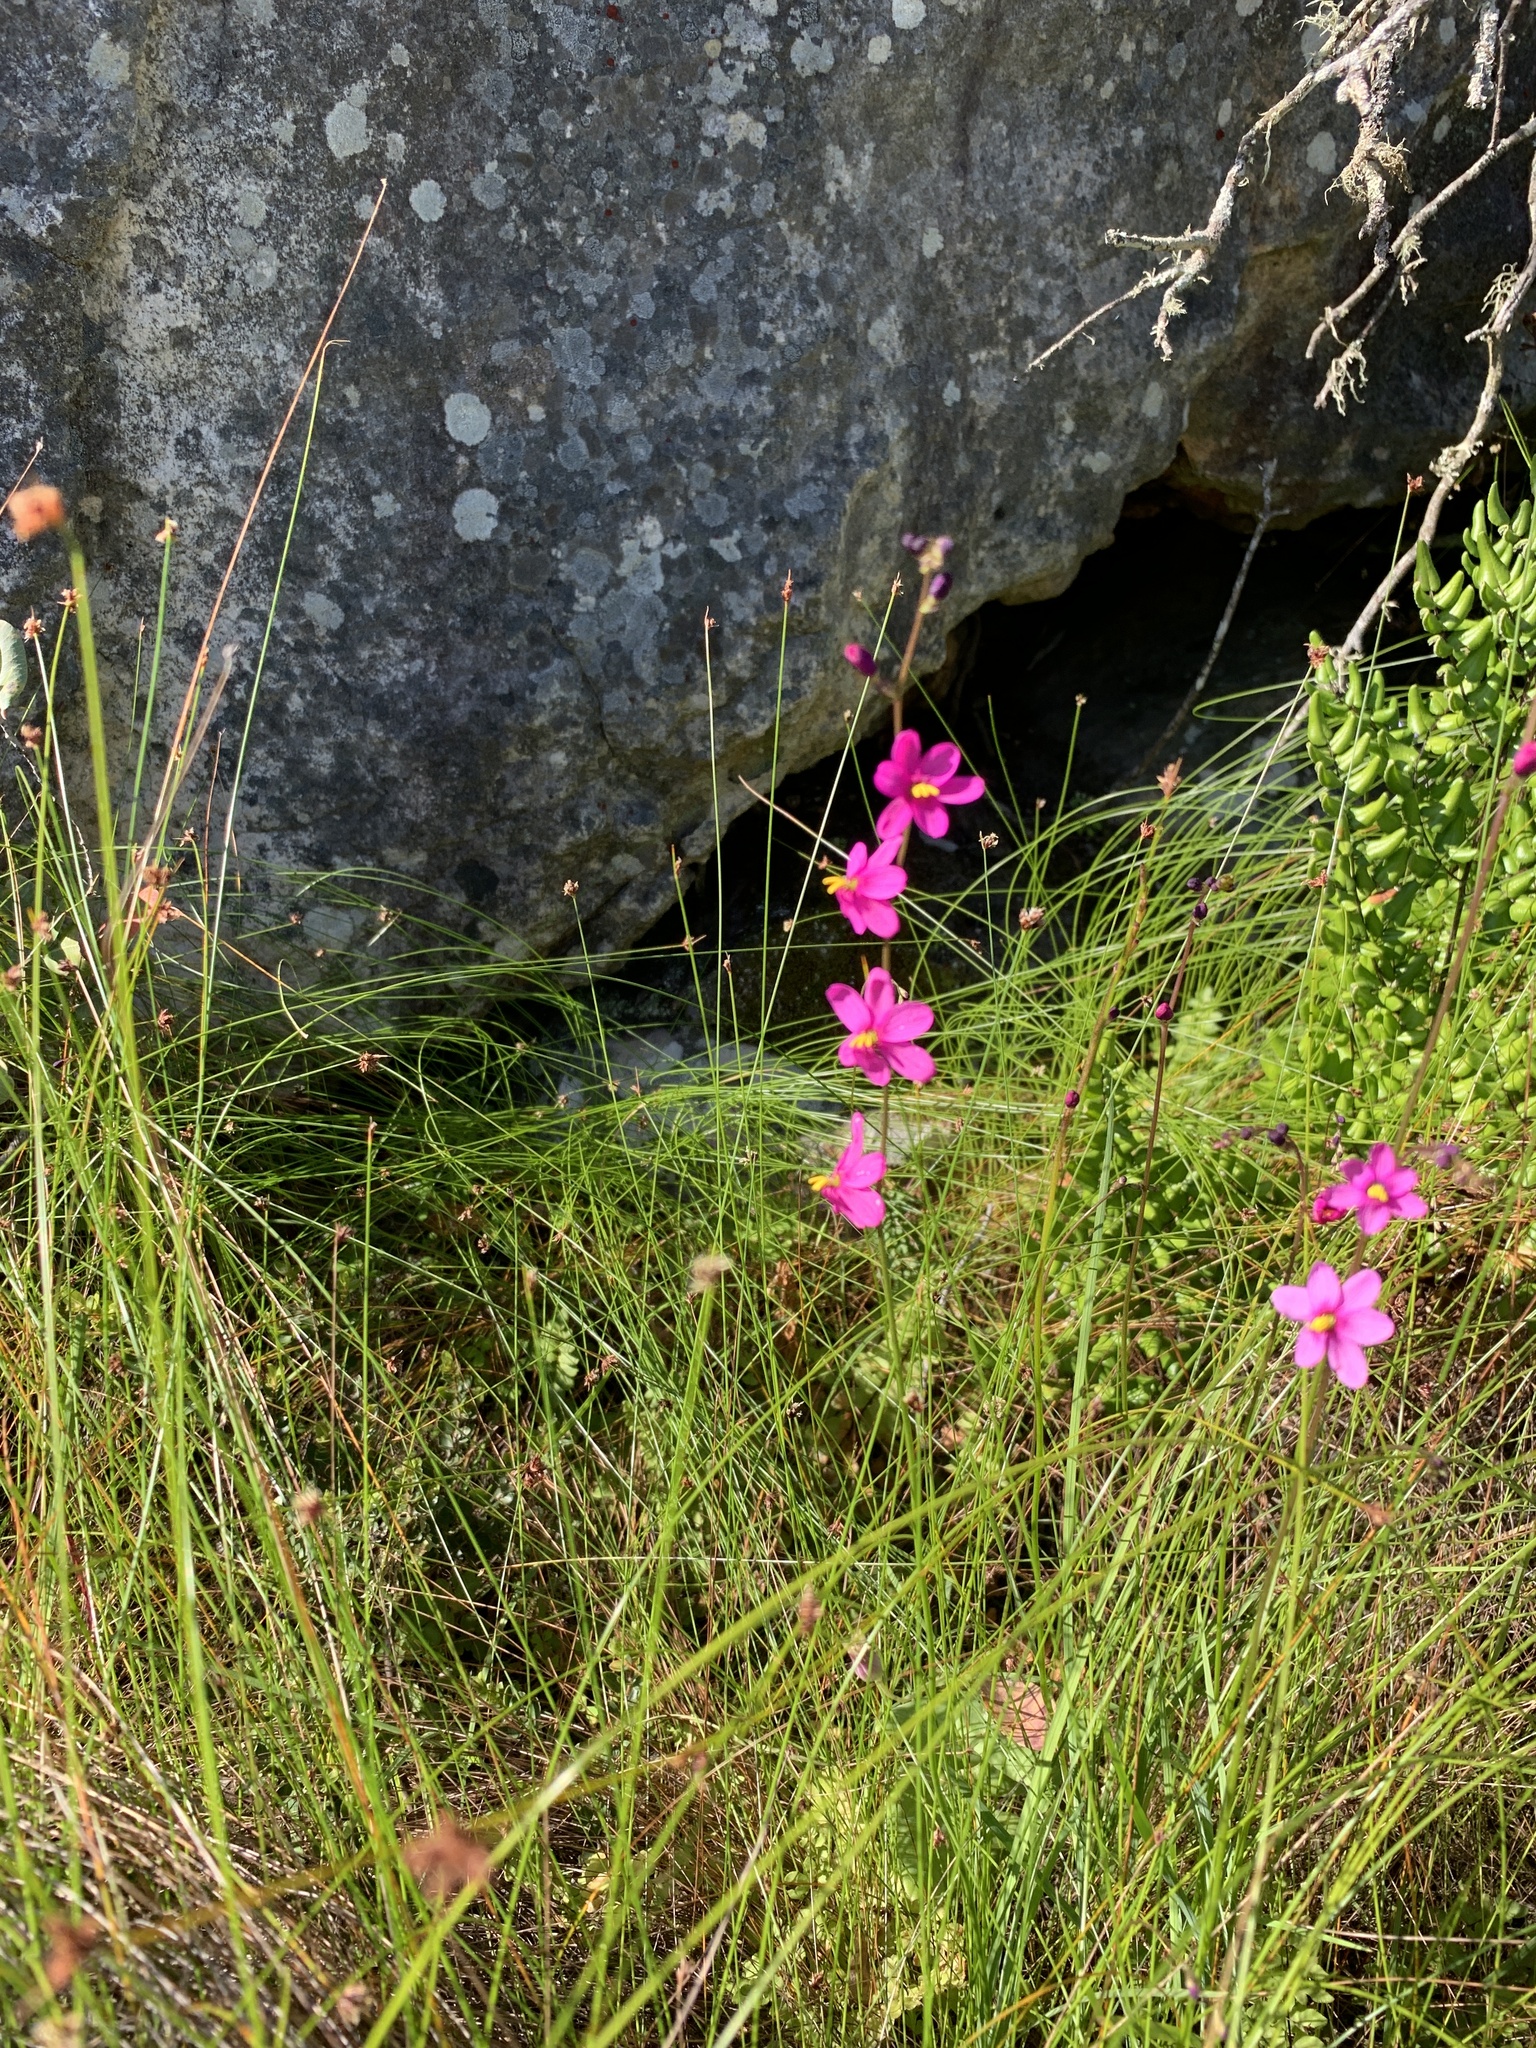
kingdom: Plantae
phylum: Tracheophyta
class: Liliopsida
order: Asparagales
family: Iridaceae
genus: Ixia
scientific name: Ixia tenuis
